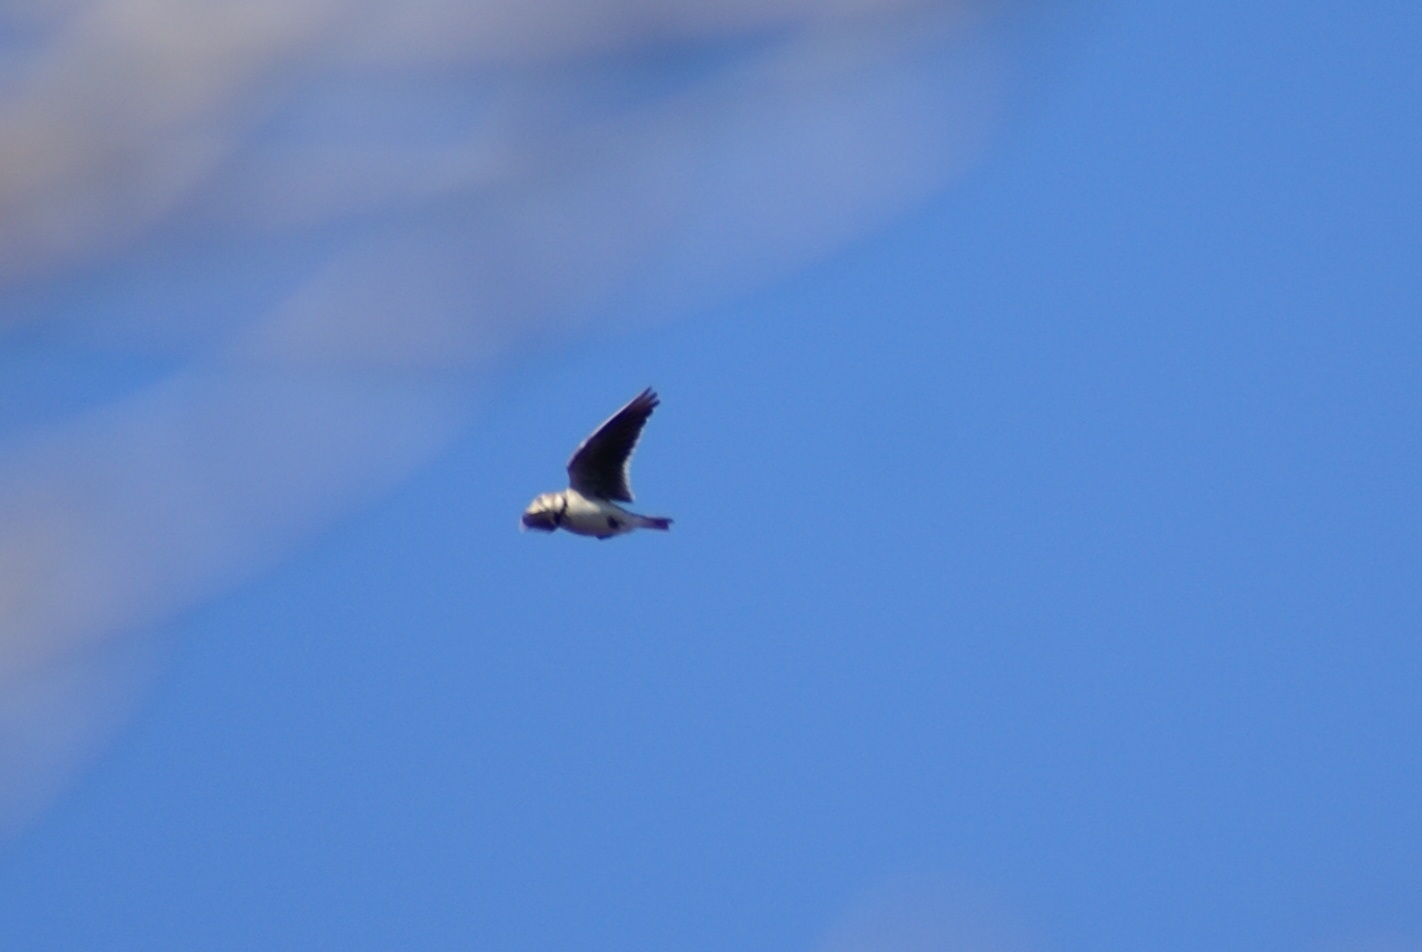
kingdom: Animalia
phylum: Chordata
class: Aves
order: Passeriformes
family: Alaudidae
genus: Melanocorypha
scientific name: Melanocorypha calandra
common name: Calandra lark
